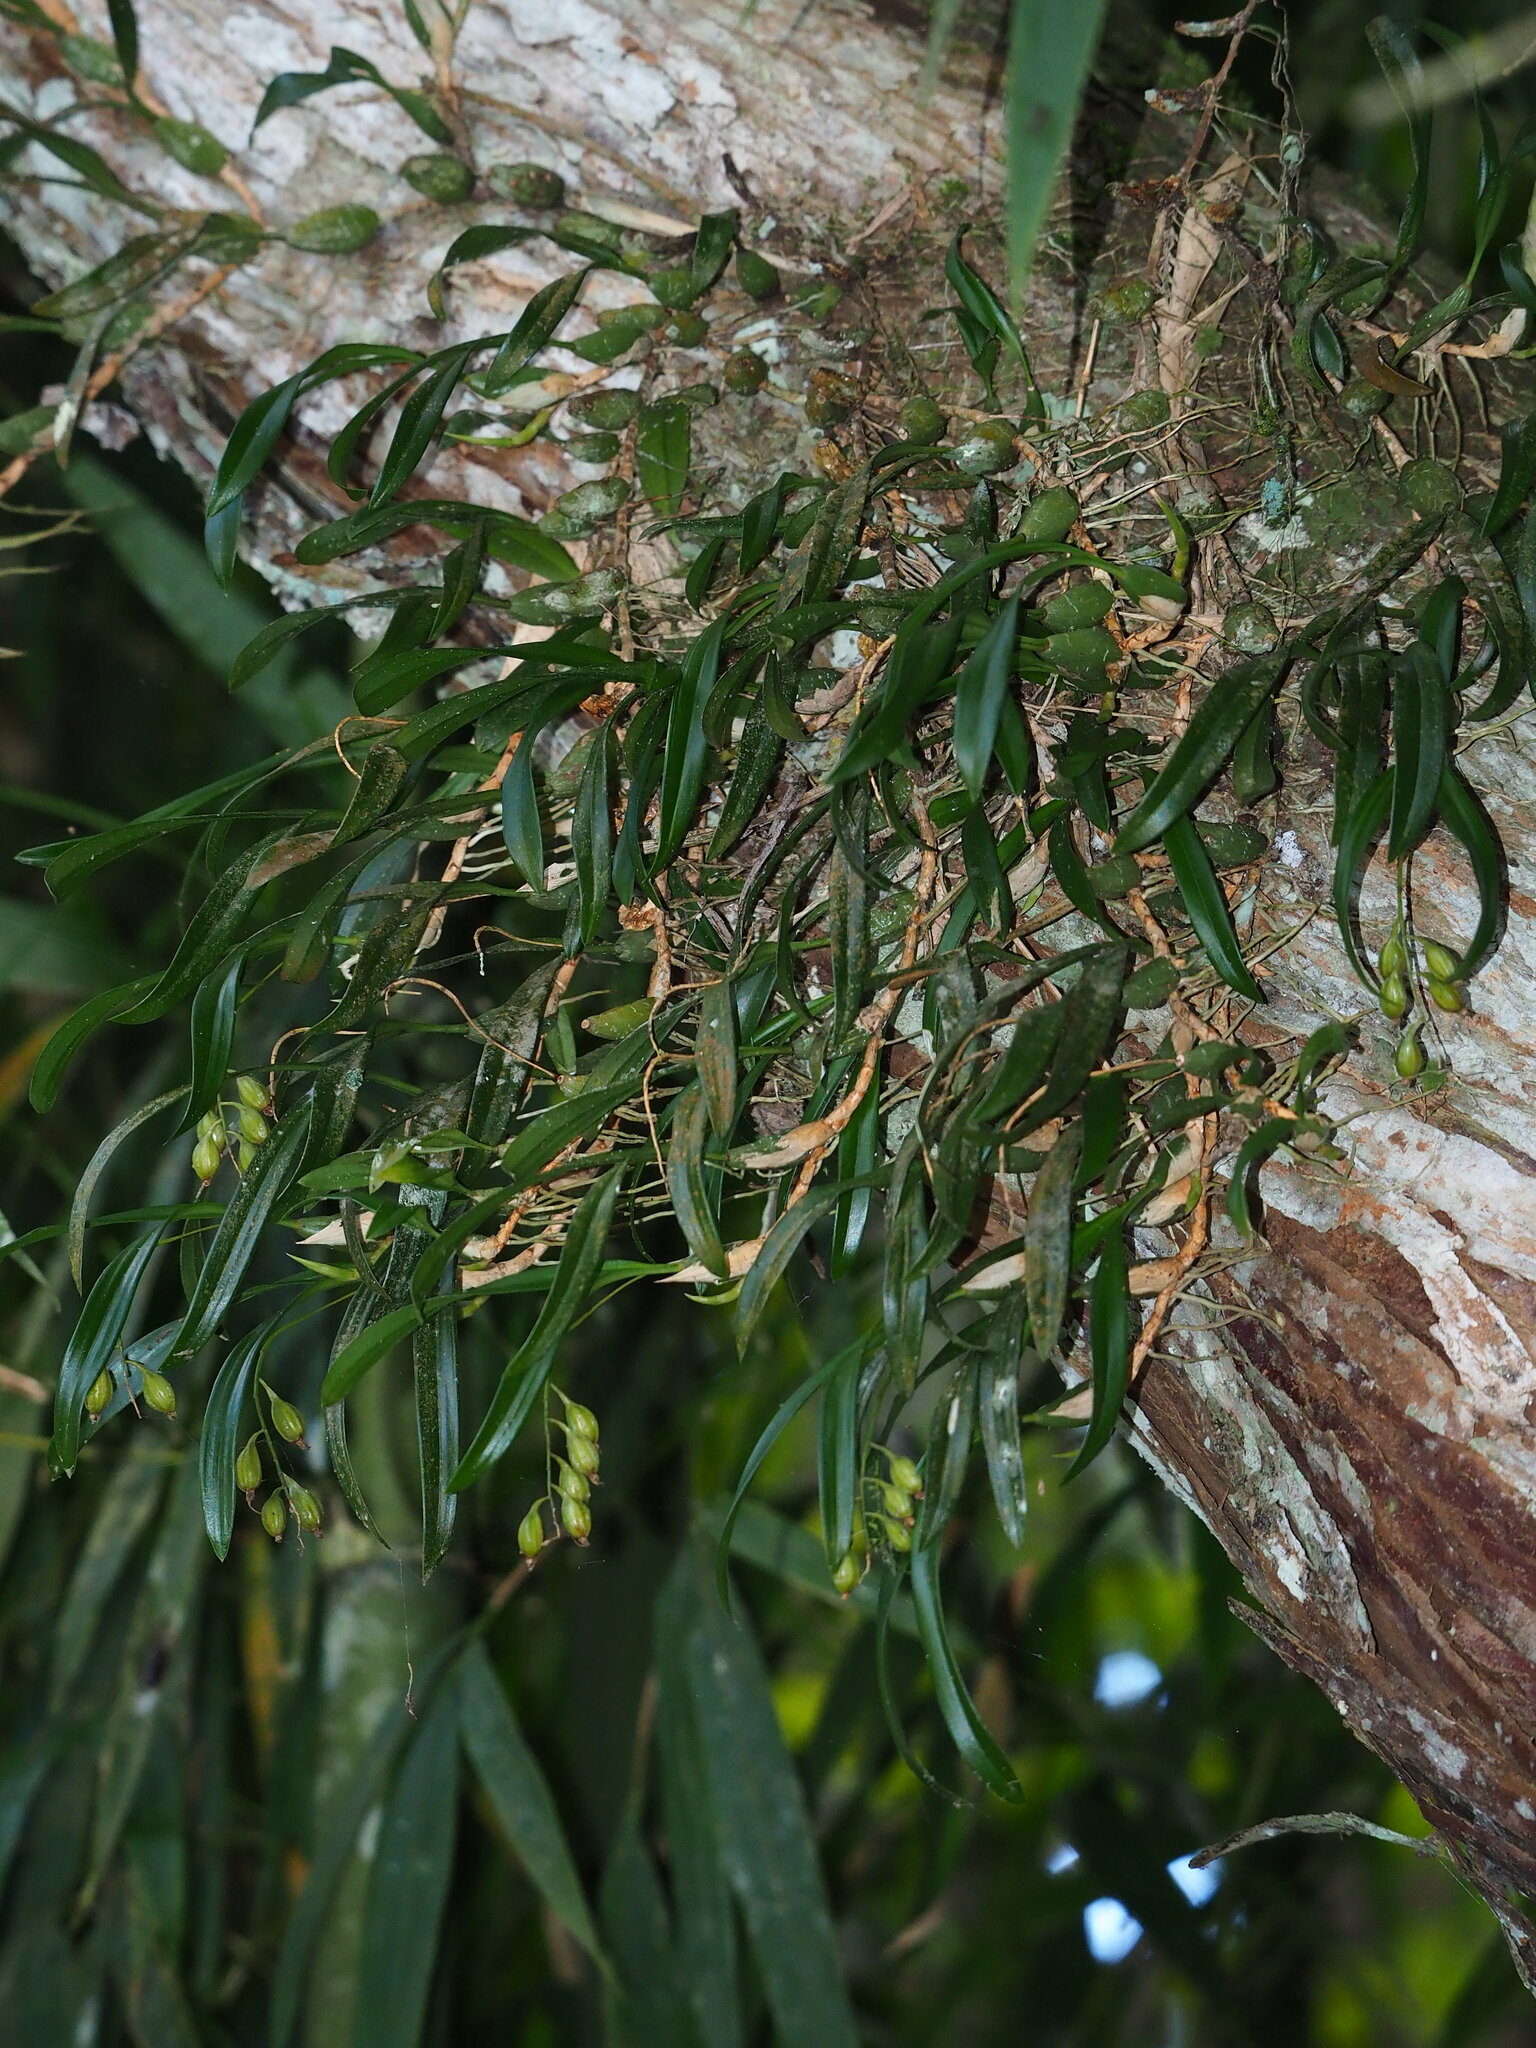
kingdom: Plantae
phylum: Tracheophyta
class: Liliopsida
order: Asparagales
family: Orchidaceae
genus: Coelogyne
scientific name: Coelogyne cantonensis
